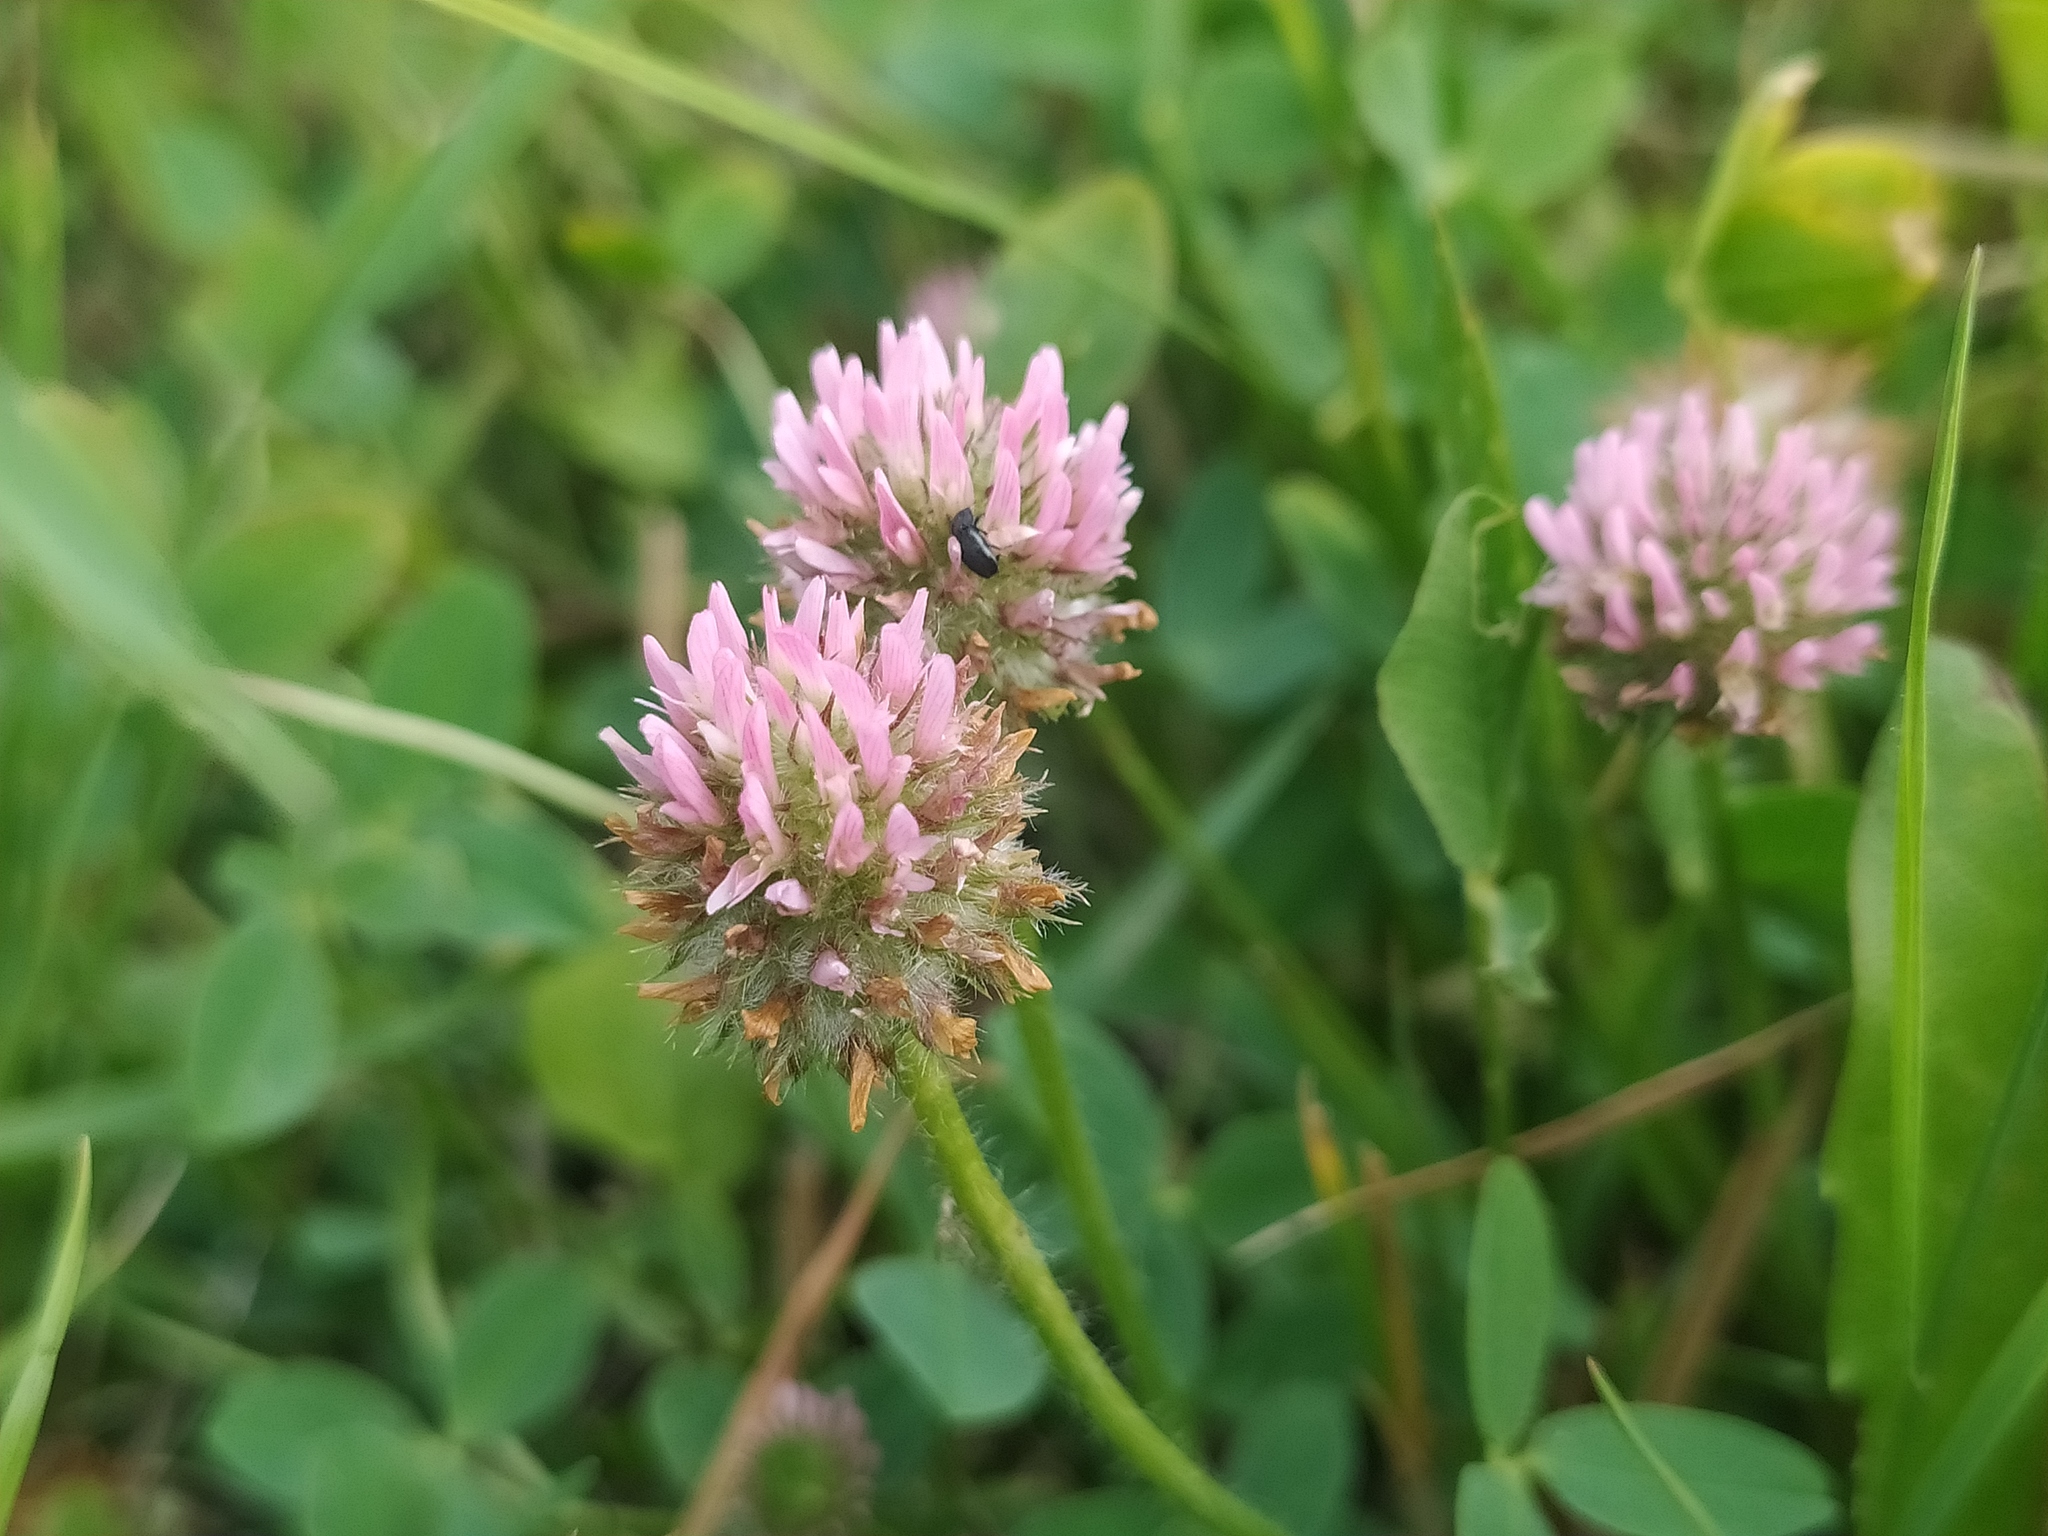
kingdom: Plantae
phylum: Tracheophyta
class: Magnoliopsida
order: Fabales
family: Fabaceae
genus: Trifolium
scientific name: Trifolium fragiferum
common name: Strawberry clover
